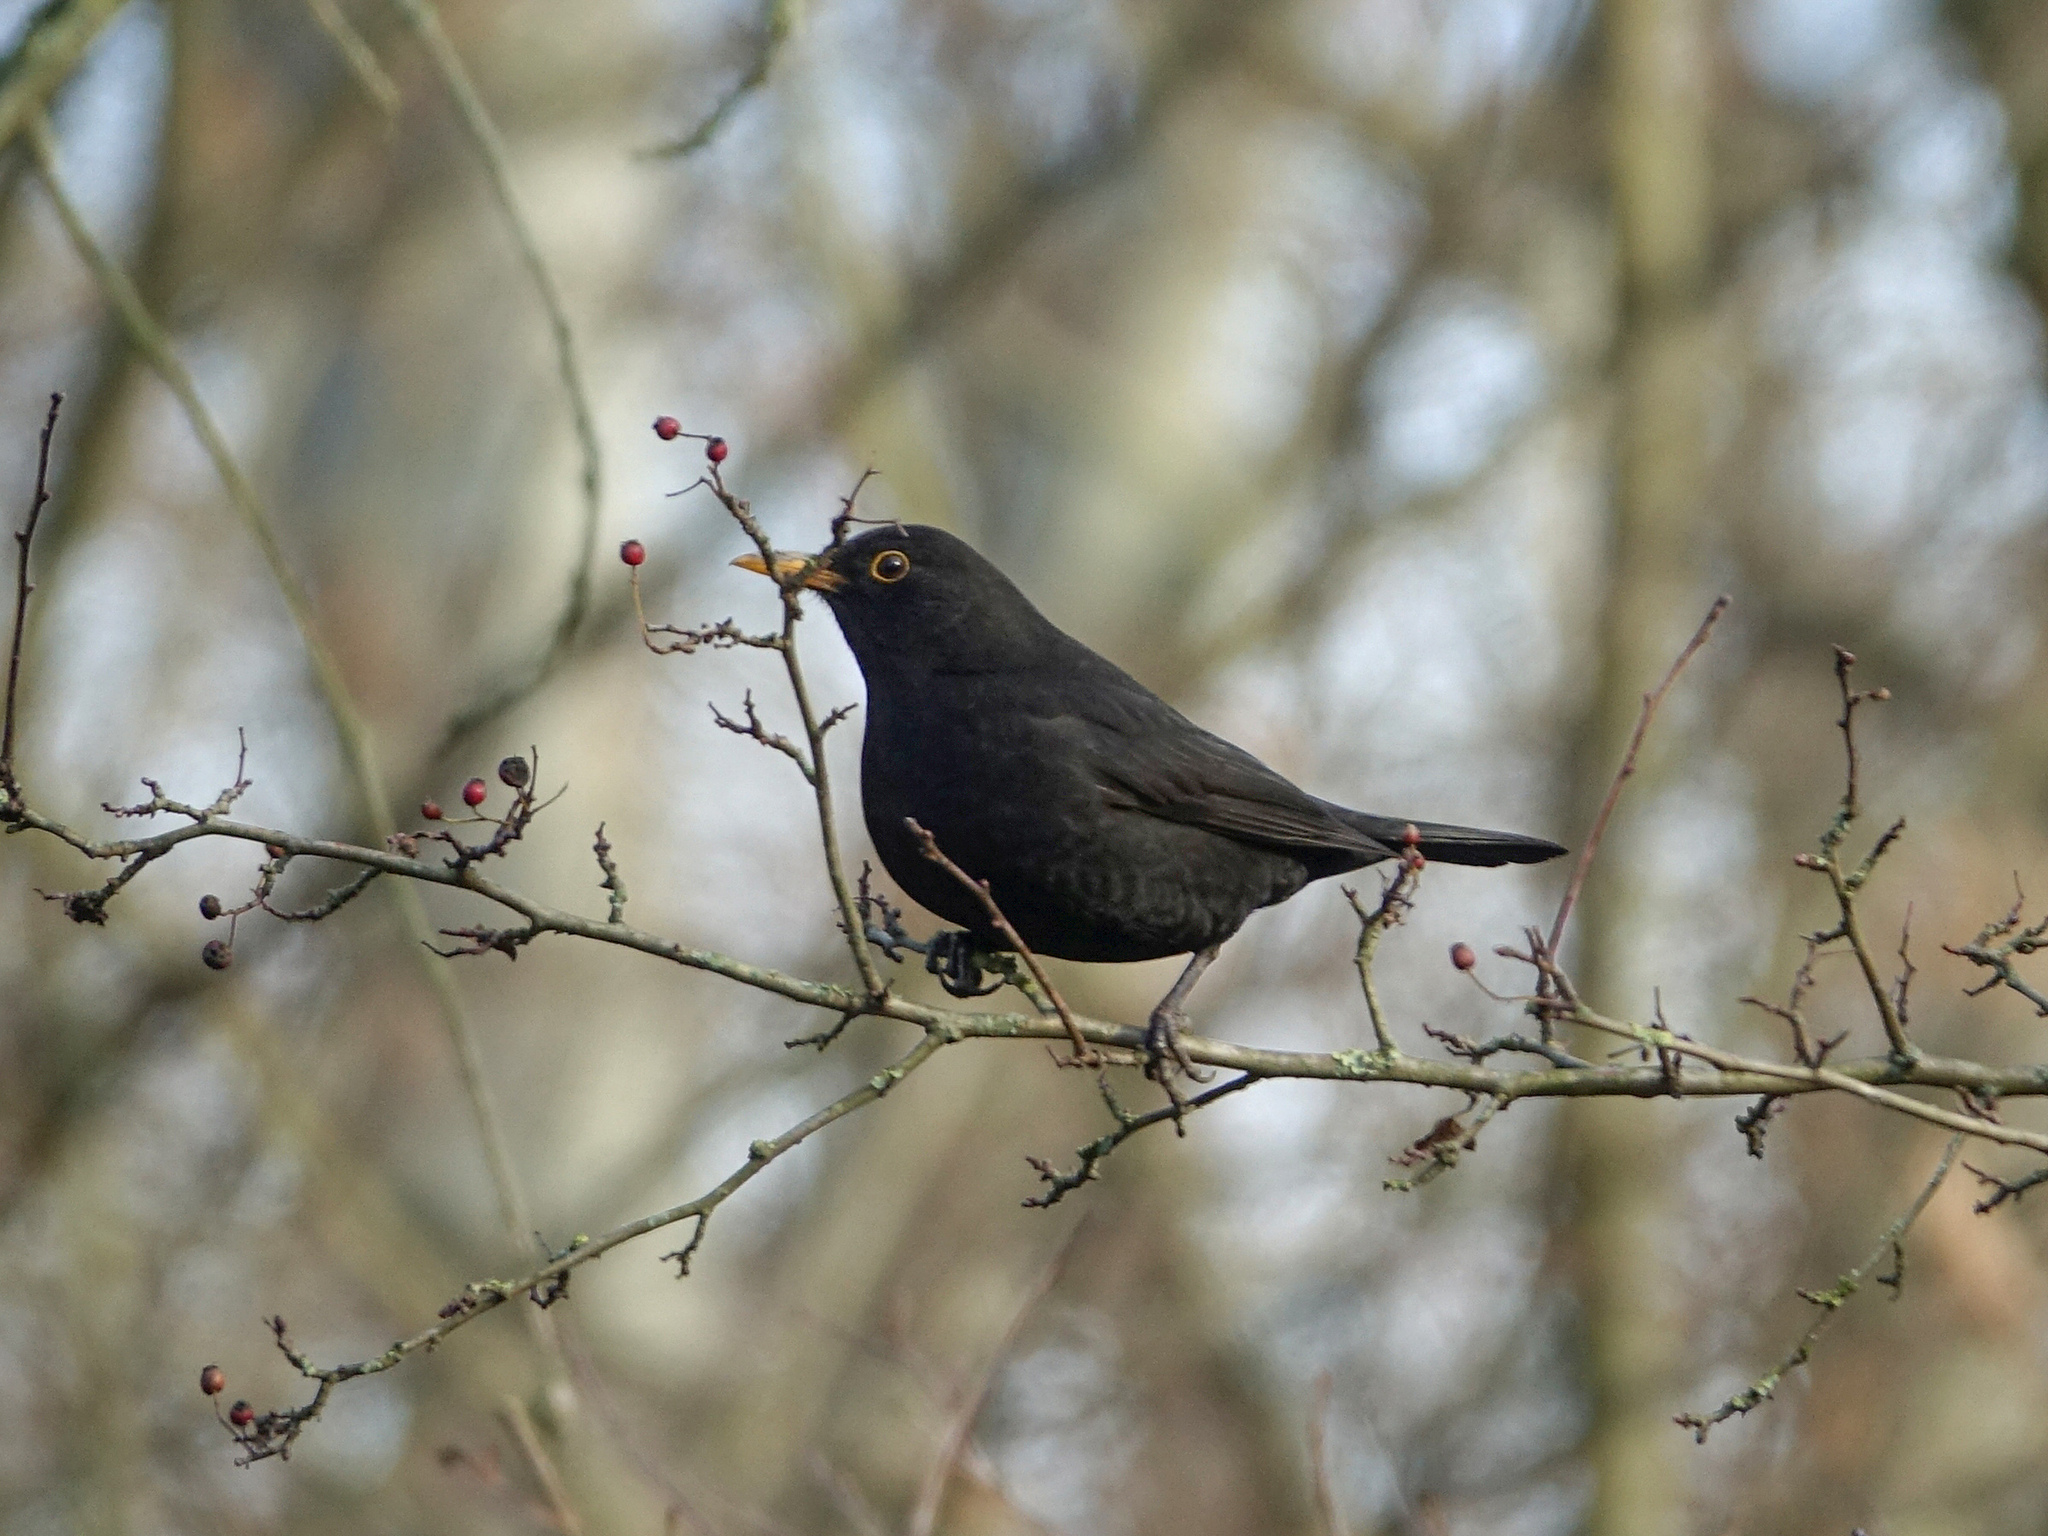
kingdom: Animalia
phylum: Chordata
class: Aves
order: Passeriformes
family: Turdidae
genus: Turdus
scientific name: Turdus merula
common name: Common blackbird
